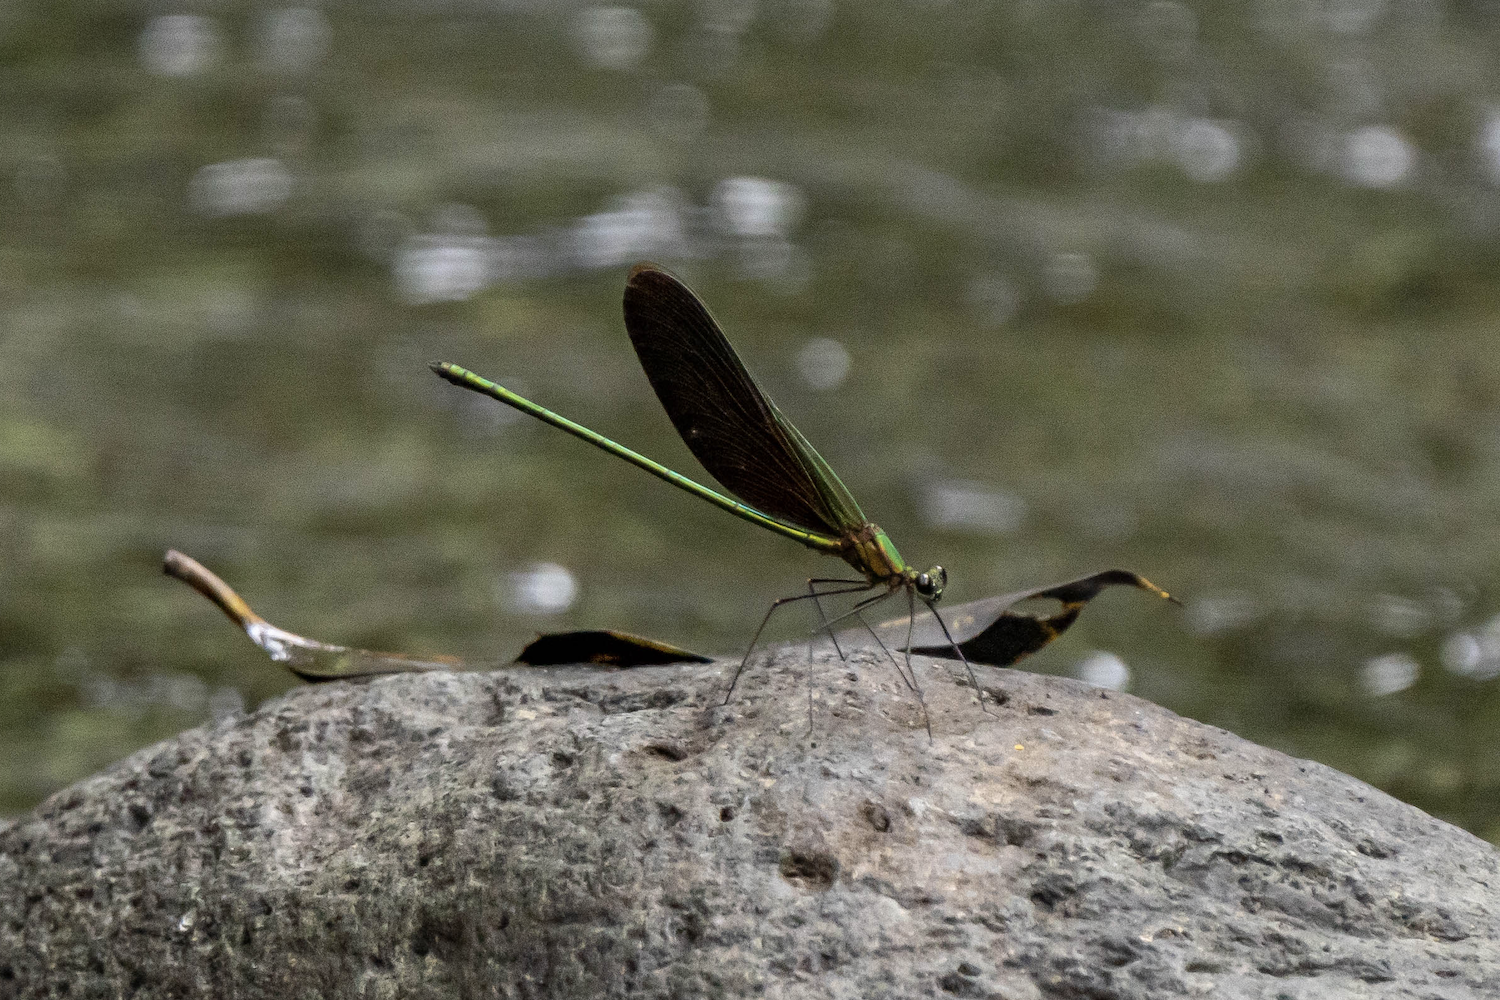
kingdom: Animalia
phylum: Arthropoda
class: Insecta
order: Odonata
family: Calopterygidae
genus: Neurobasis
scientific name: Neurobasis chinensis
